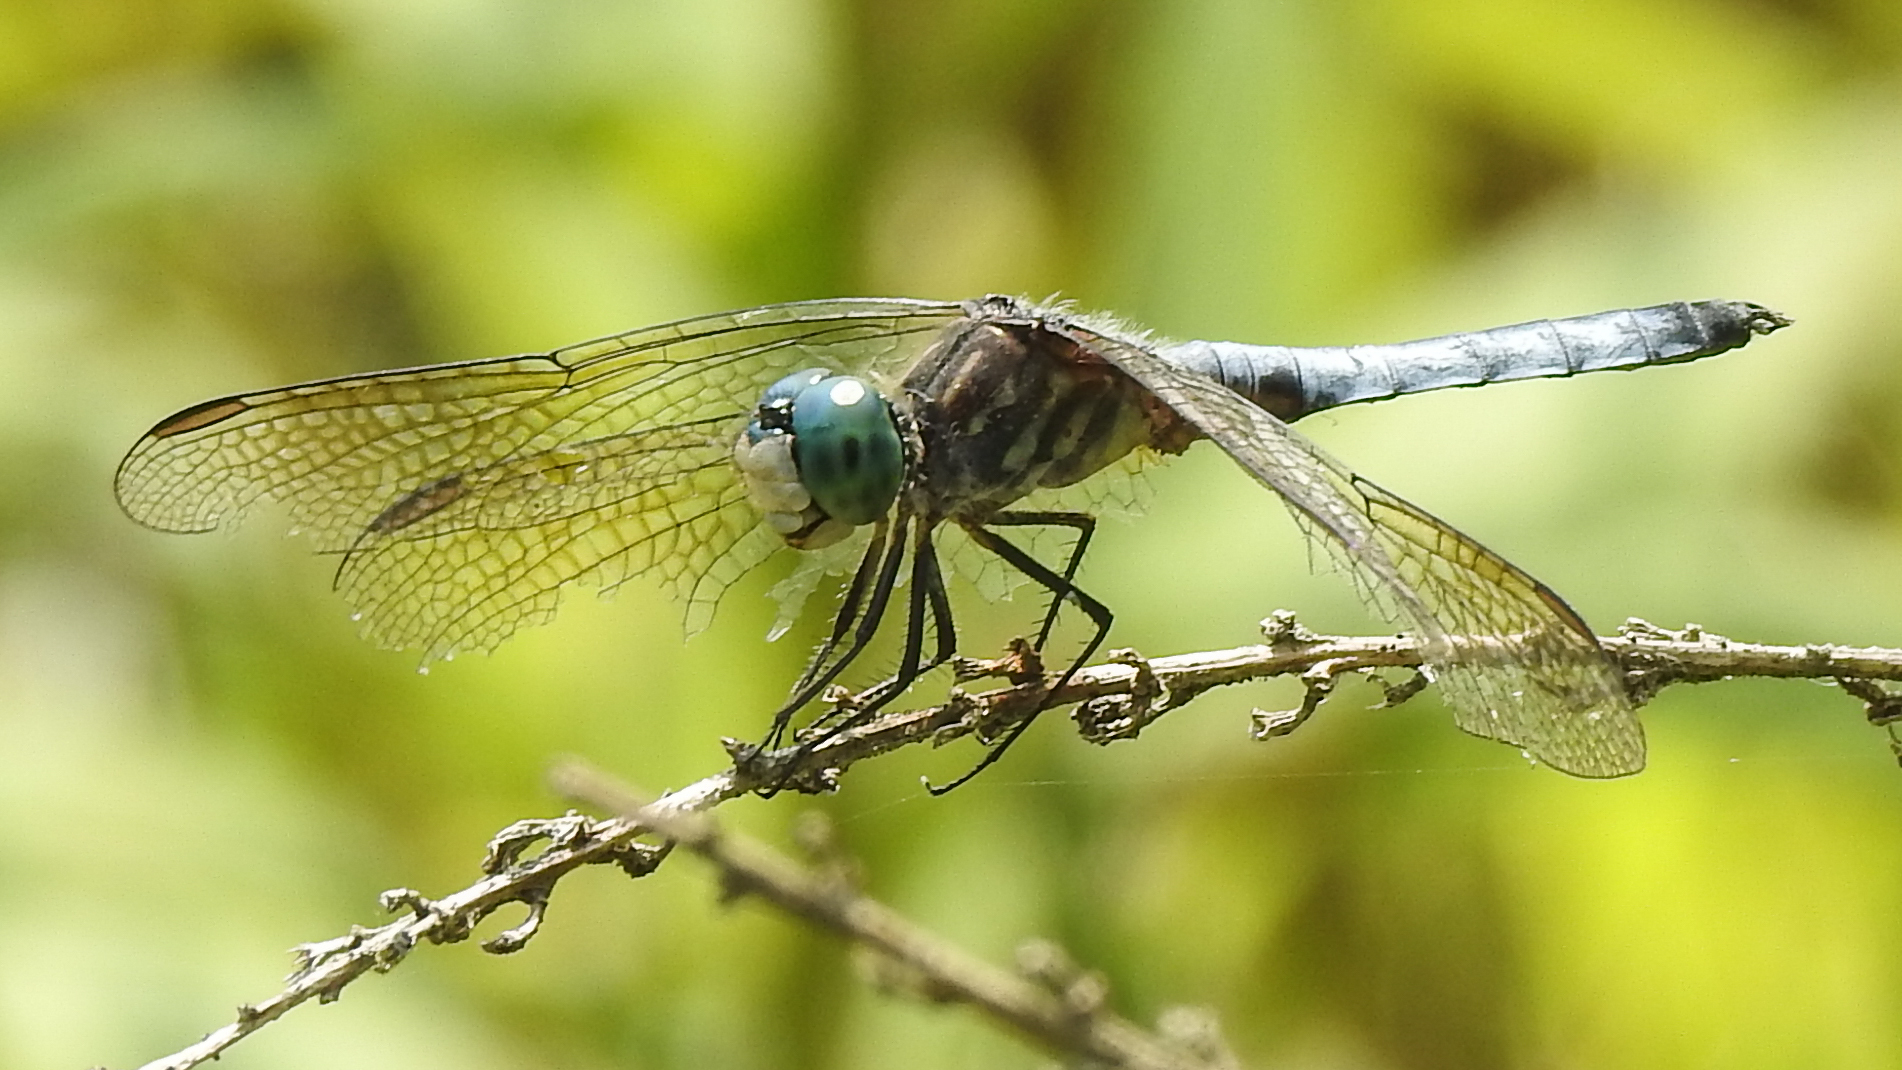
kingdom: Animalia
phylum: Arthropoda
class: Insecta
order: Odonata
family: Libellulidae
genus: Pachydiplax
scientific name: Pachydiplax longipennis
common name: Blue dasher
